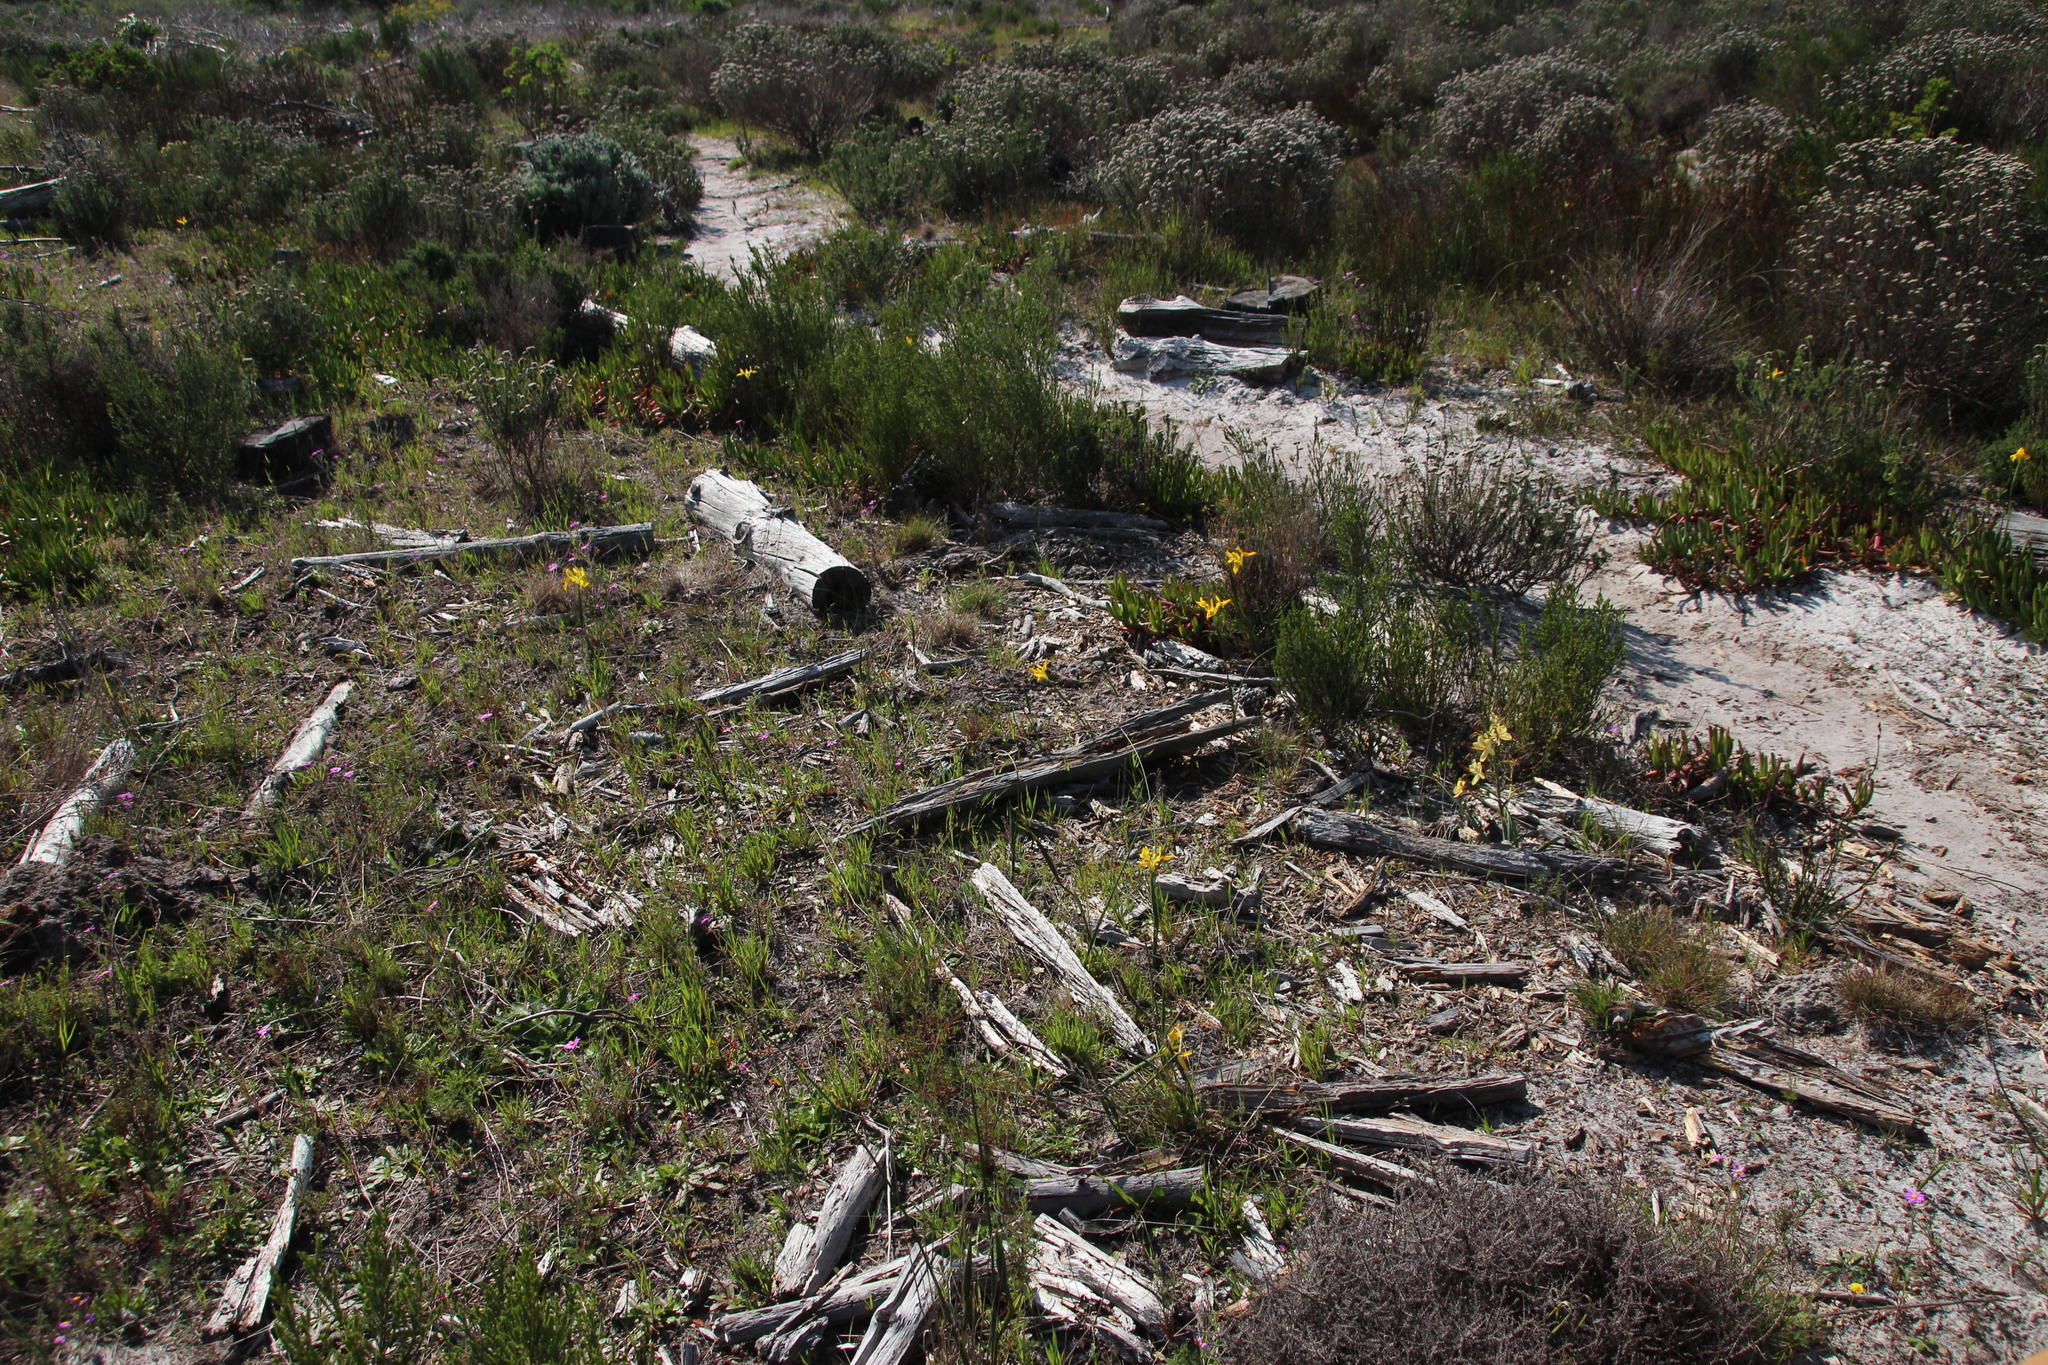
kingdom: Plantae
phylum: Tracheophyta
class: Liliopsida
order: Asparagales
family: Iridaceae
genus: Moraea
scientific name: Moraea neglecta
